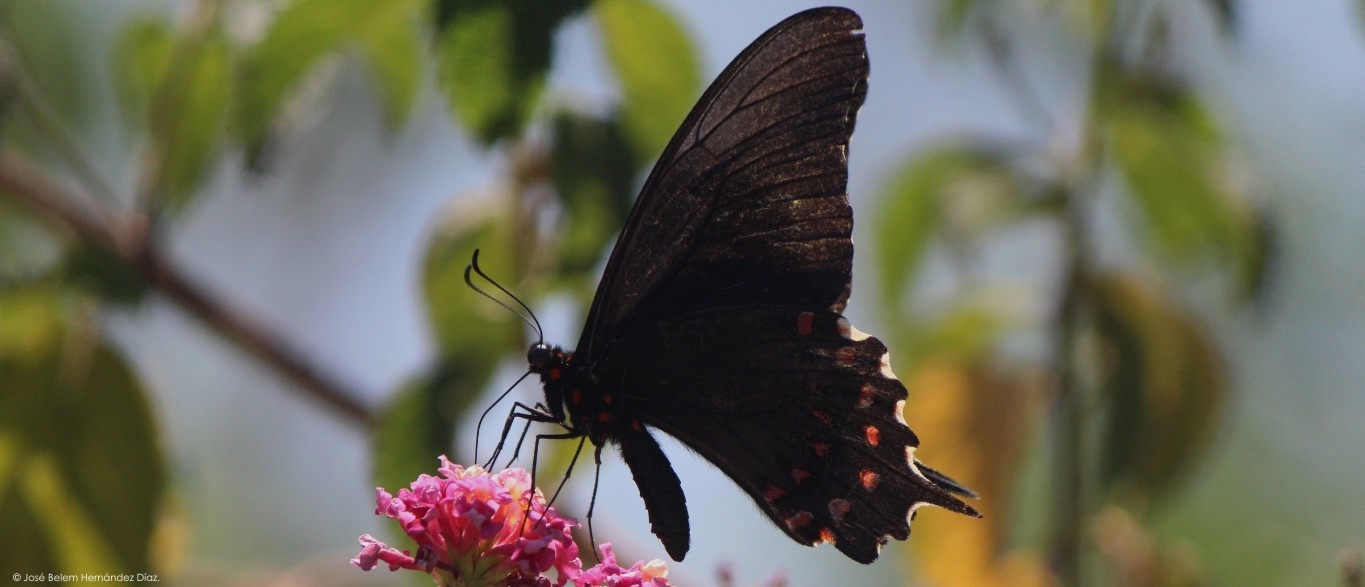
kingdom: Animalia
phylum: Arthropoda
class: Insecta
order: Lepidoptera
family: Papilionidae
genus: Heraclides
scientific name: Heraclides rogeri
